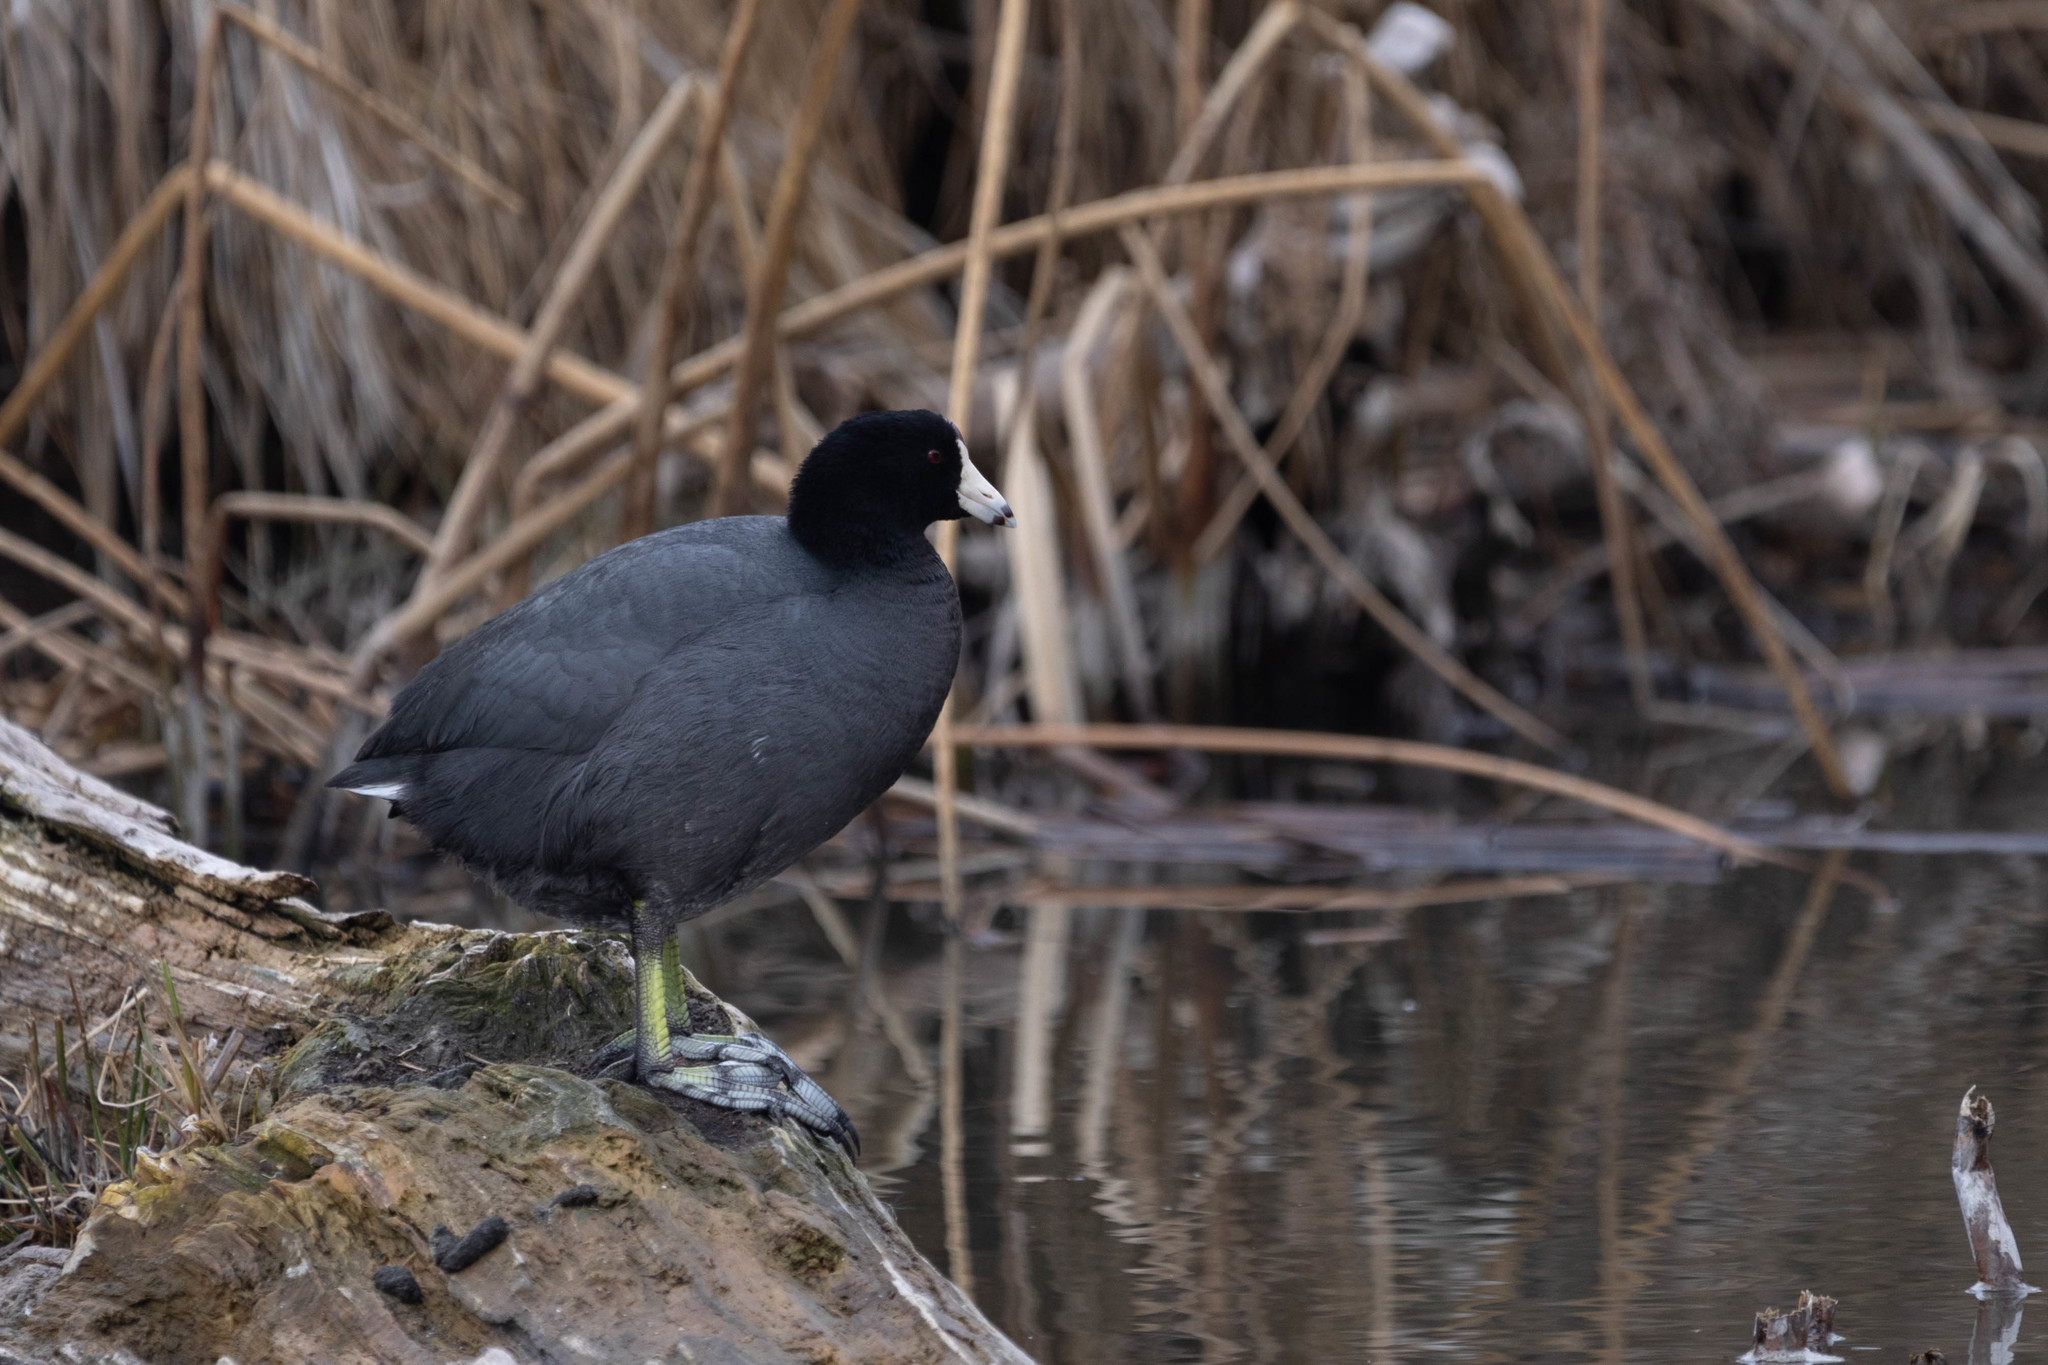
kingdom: Animalia
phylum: Chordata
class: Aves
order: Gruiformes
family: Rallidae
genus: Fulica
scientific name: Fulica americana
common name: American coot
